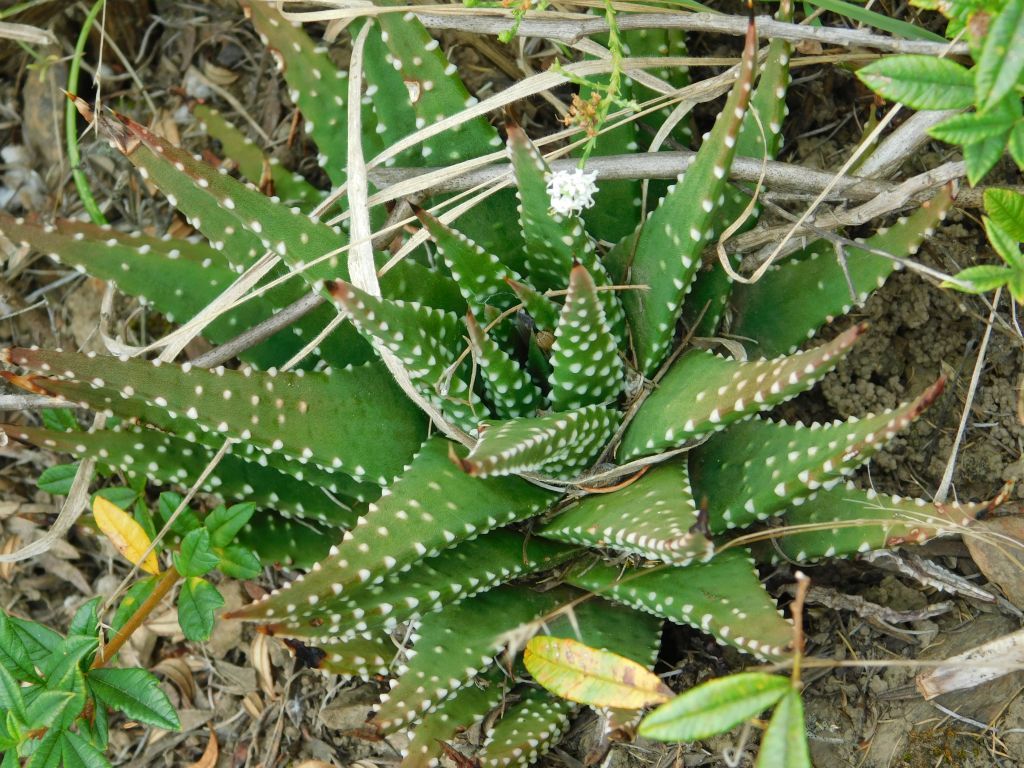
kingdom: Plantae
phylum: Tracheophyta
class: Liliopsida
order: Asparagales
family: Asphodelaceae
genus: Tulista
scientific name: Tulista minor
